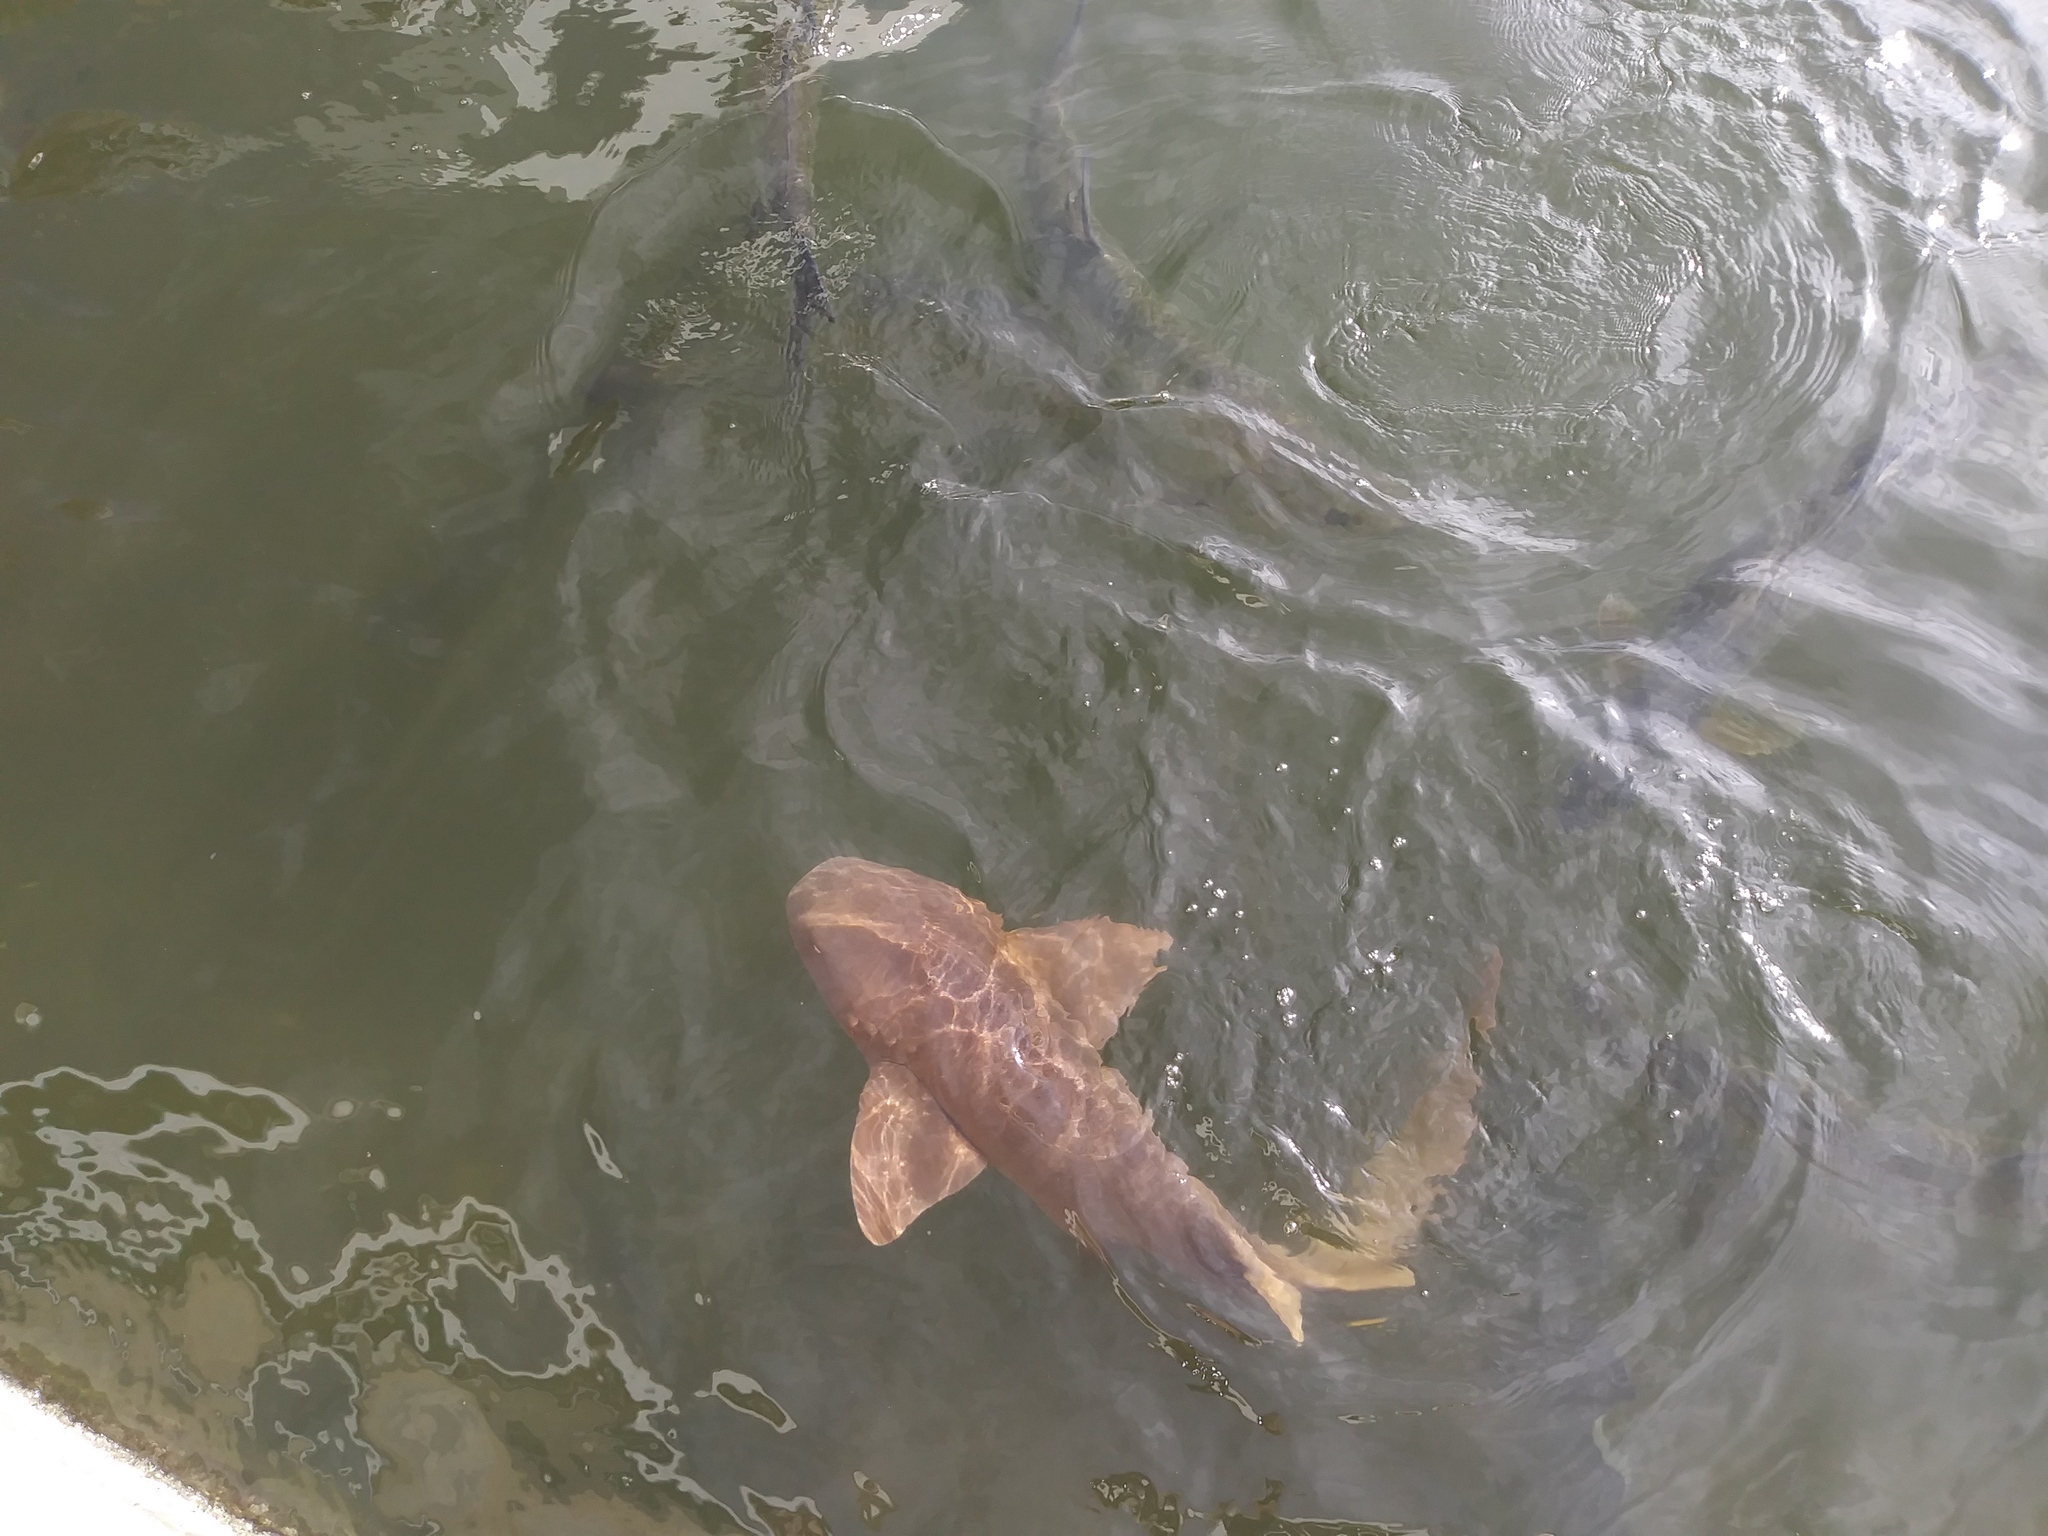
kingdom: Animalia
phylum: Chordata
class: Elasmobranchii
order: Orectolobiformes
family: Ginglymostomatidae
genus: Ginglymostoma
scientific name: Ginglymostoma cirratum
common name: Nurse shark
